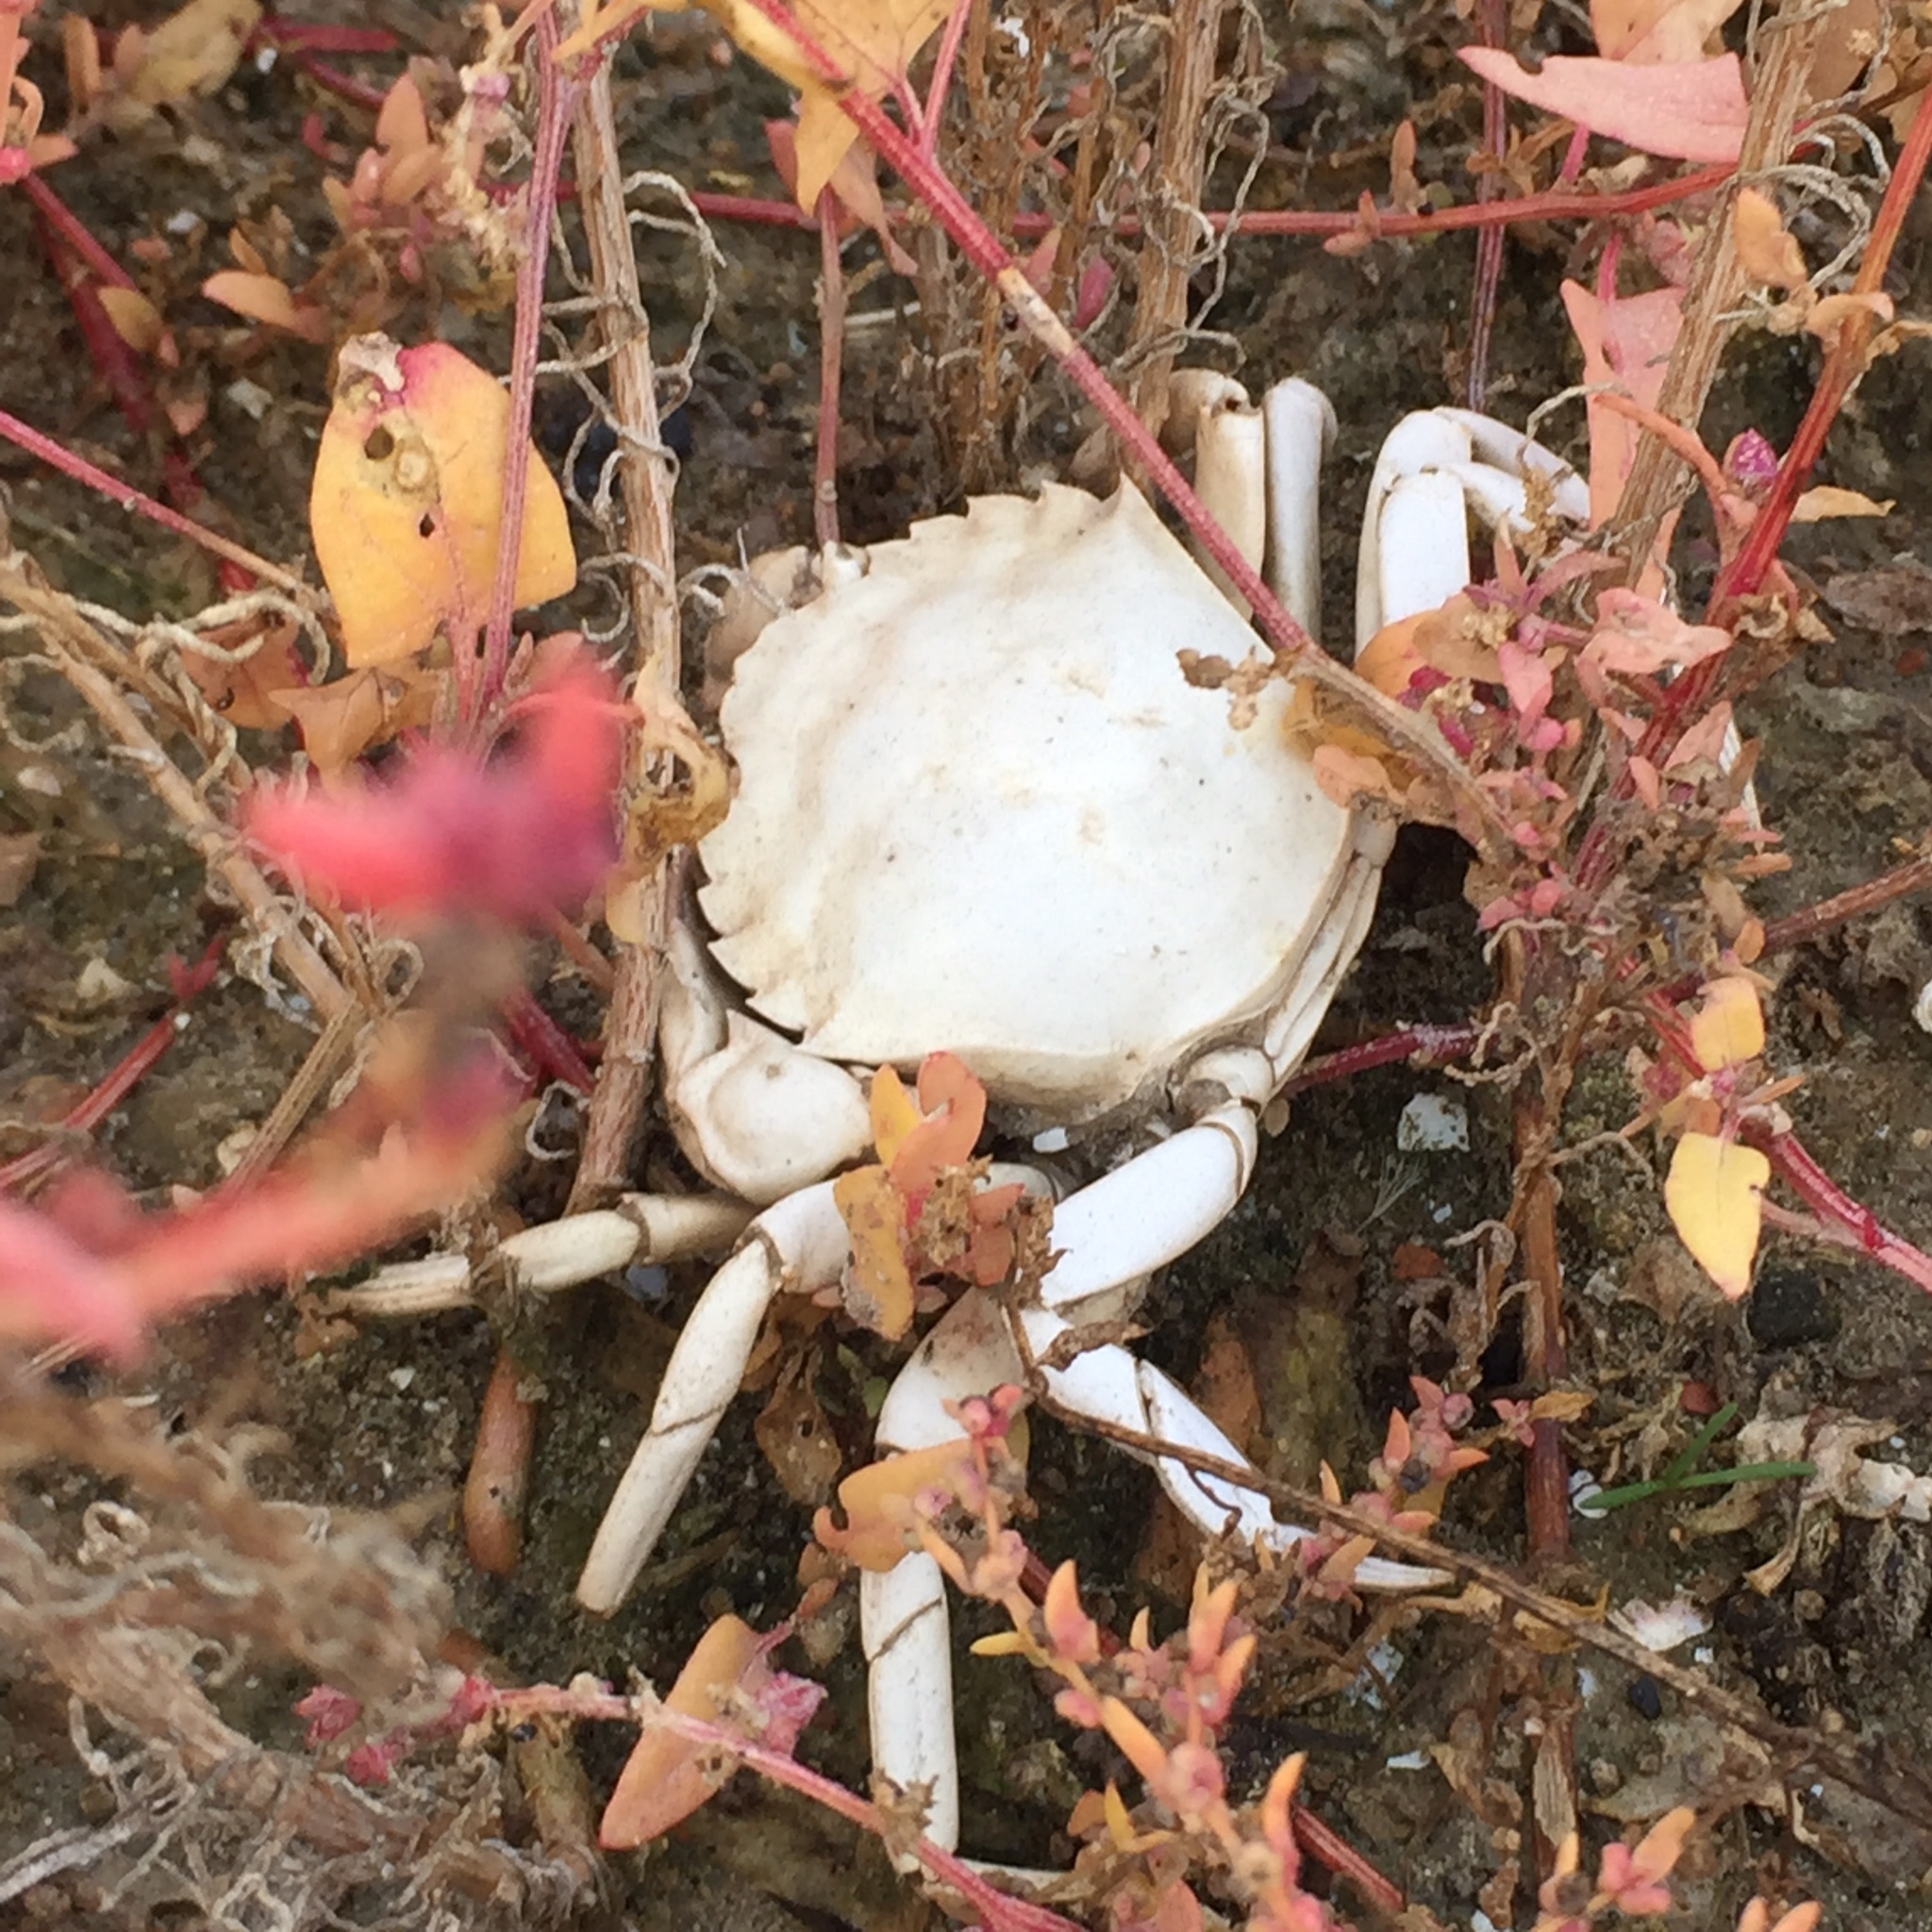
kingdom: Animalia
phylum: Arthropoda
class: Malacostraca
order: Decapoda
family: Carcinidae
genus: Carcinus
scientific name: Carcinus aestuarii
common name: Mediterranean green crab
